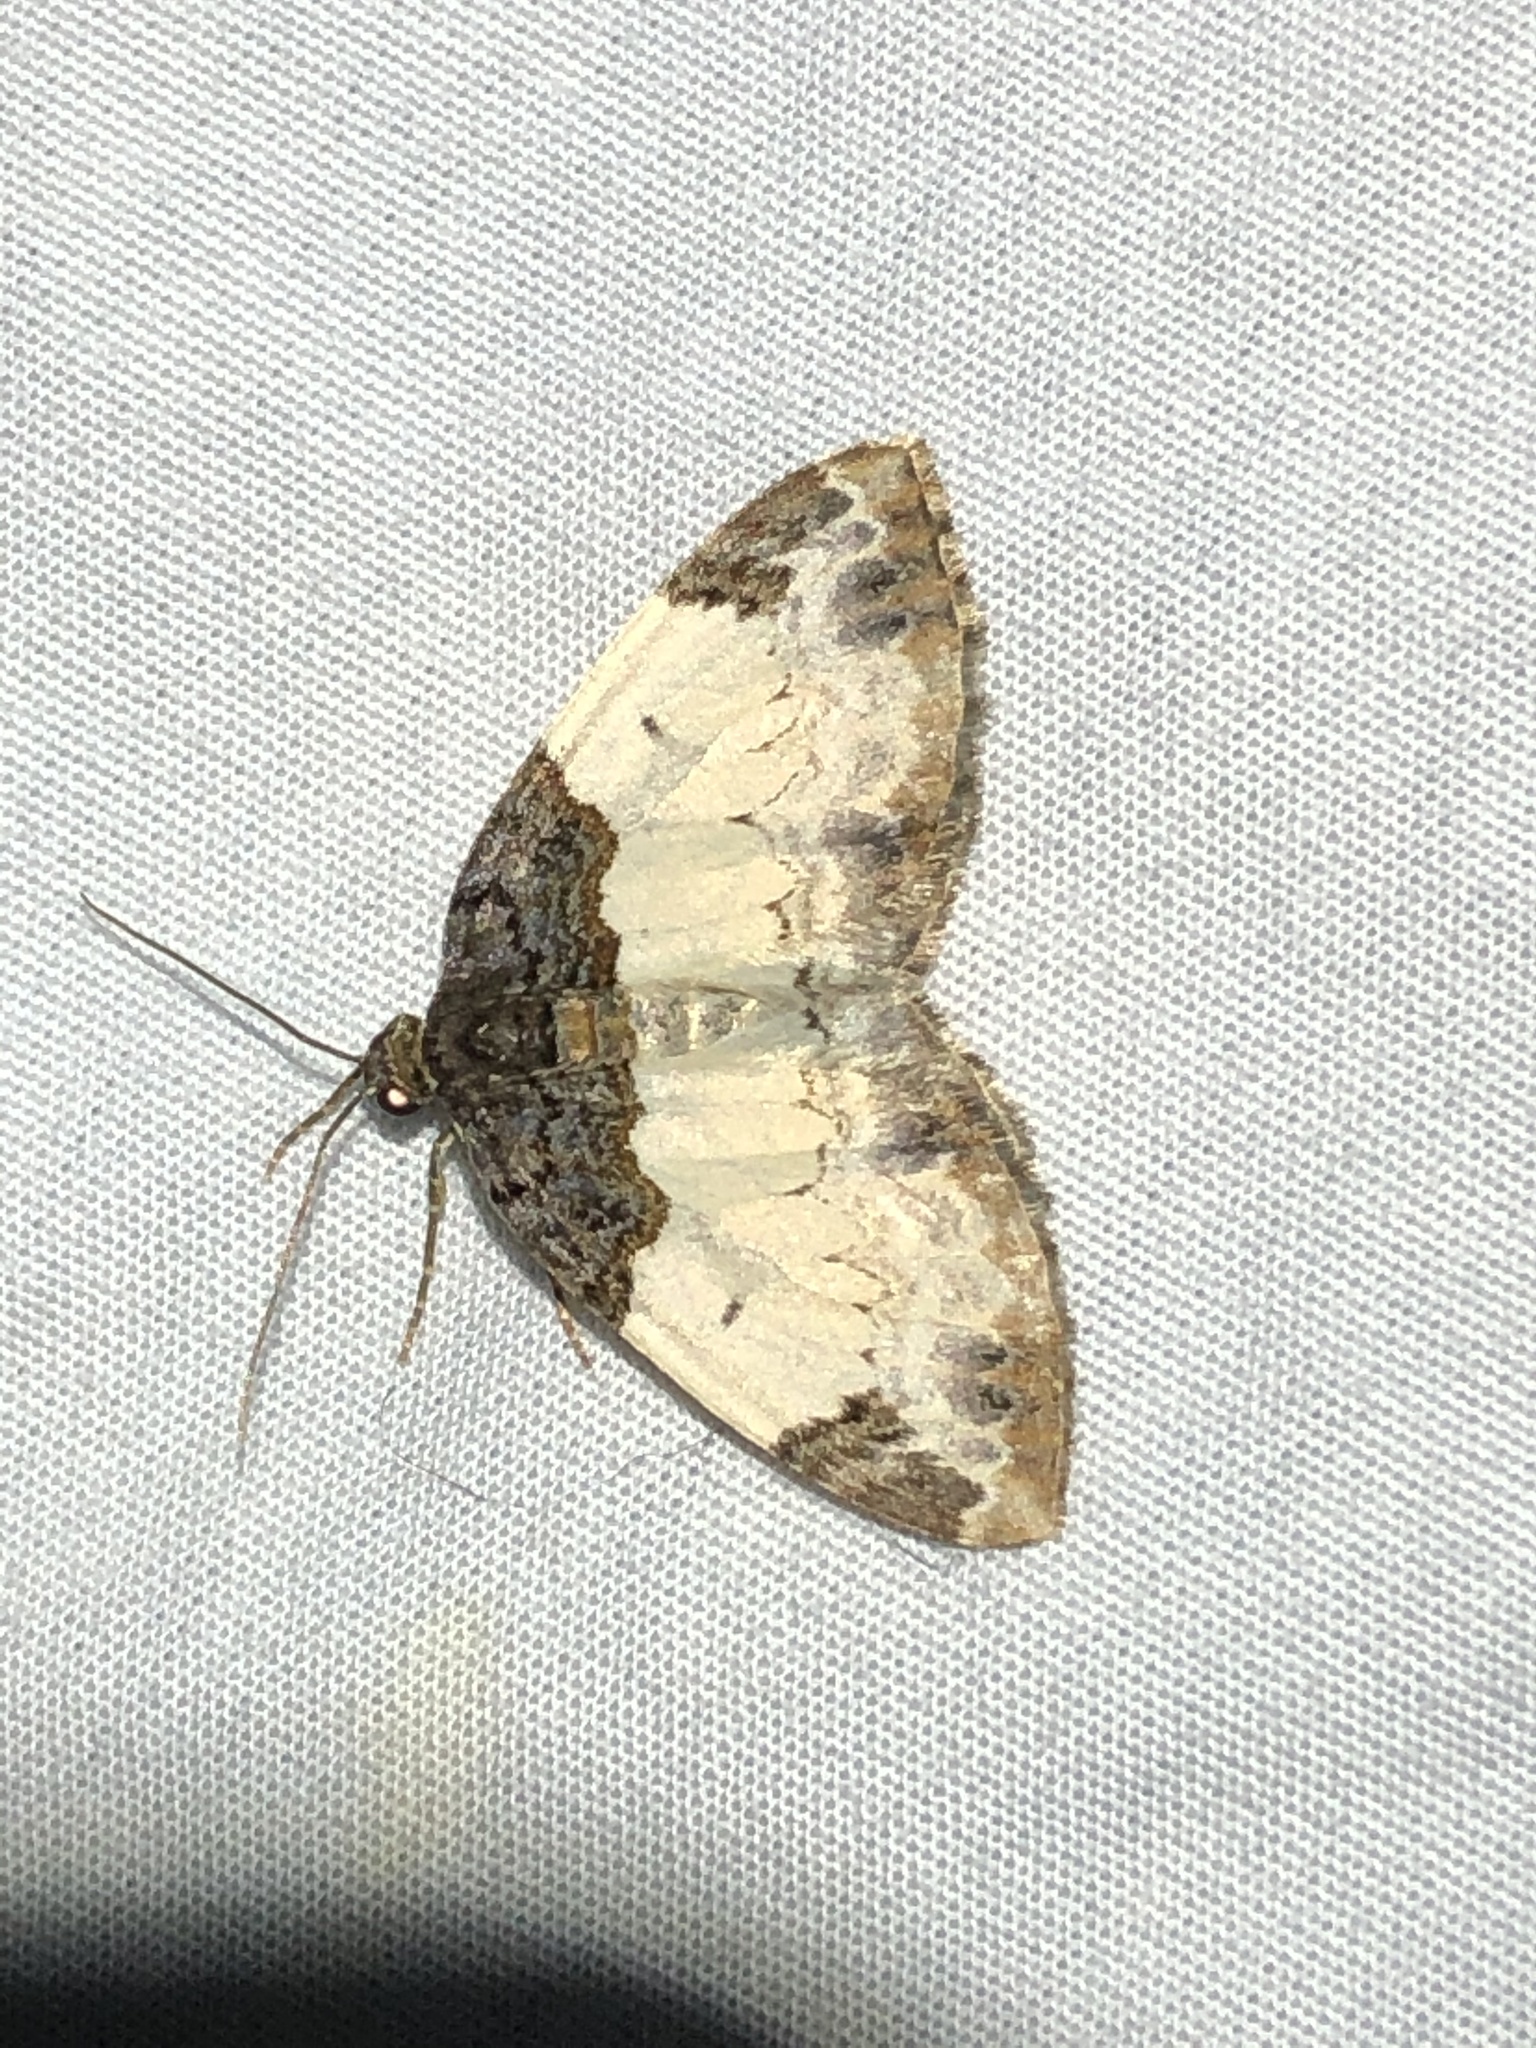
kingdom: Animalia
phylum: Arthropoda
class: Insecta
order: Lepidoptera
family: Geometridae
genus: Mesoleuca
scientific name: Mesoleuca ruficillata
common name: White-ribboned carpet moth
